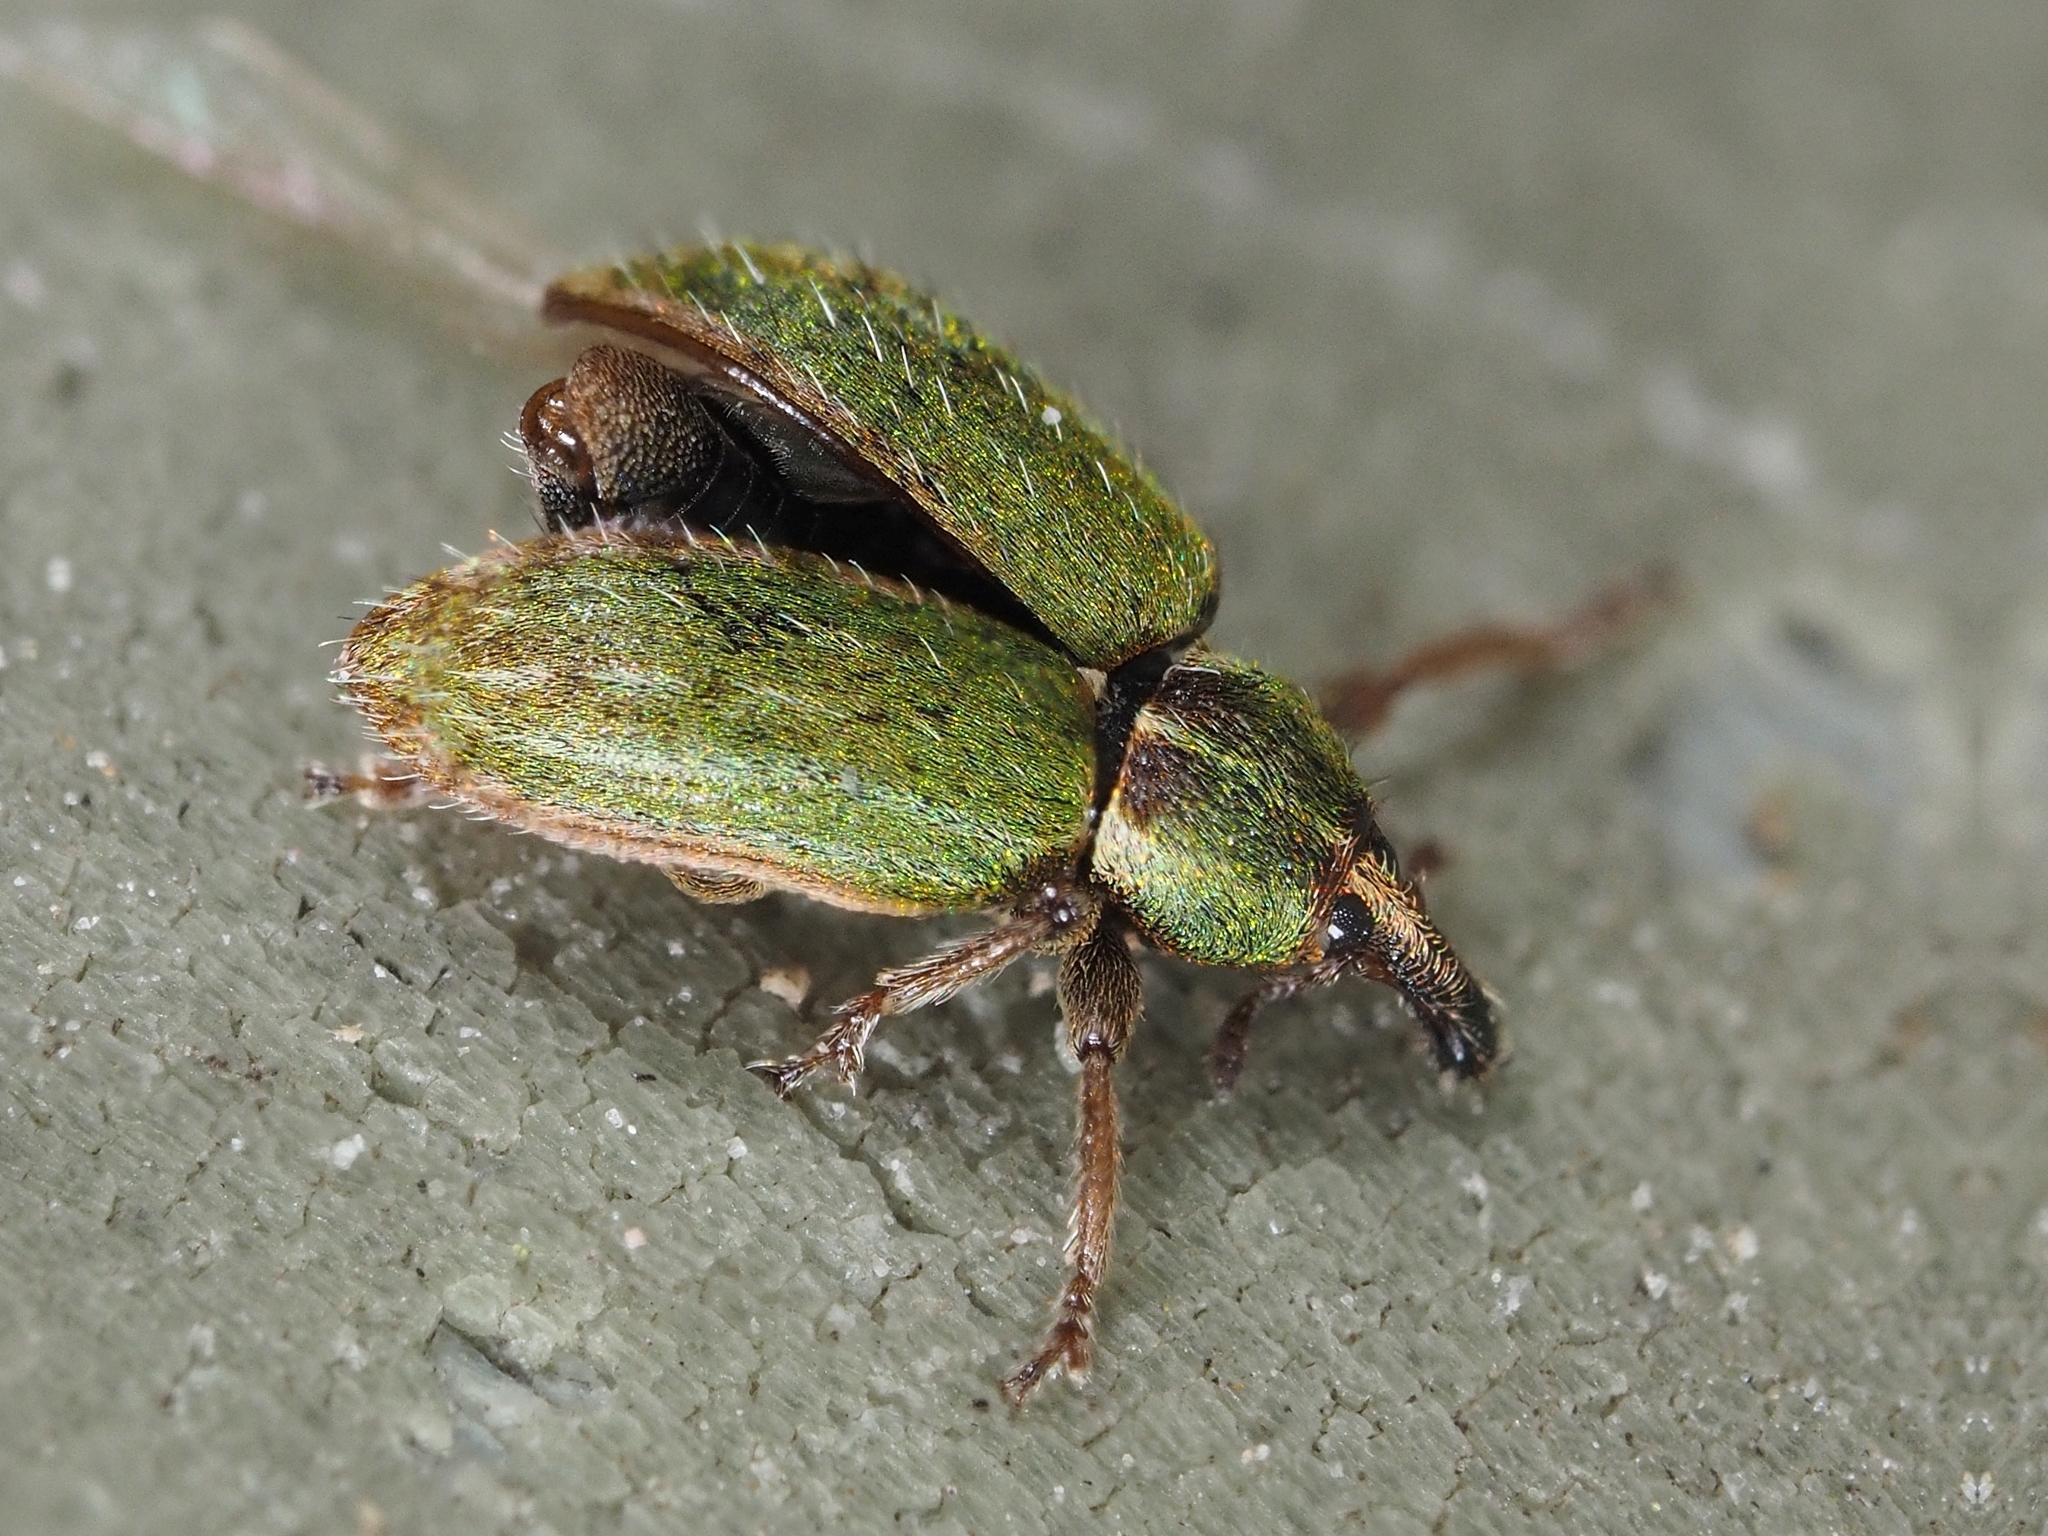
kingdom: Animalia
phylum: Arthropoda
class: Insecta
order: Coleoptera
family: Curculionidae
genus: Hypera
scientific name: Hypera nigrirostris
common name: Black-beaked green weevil
